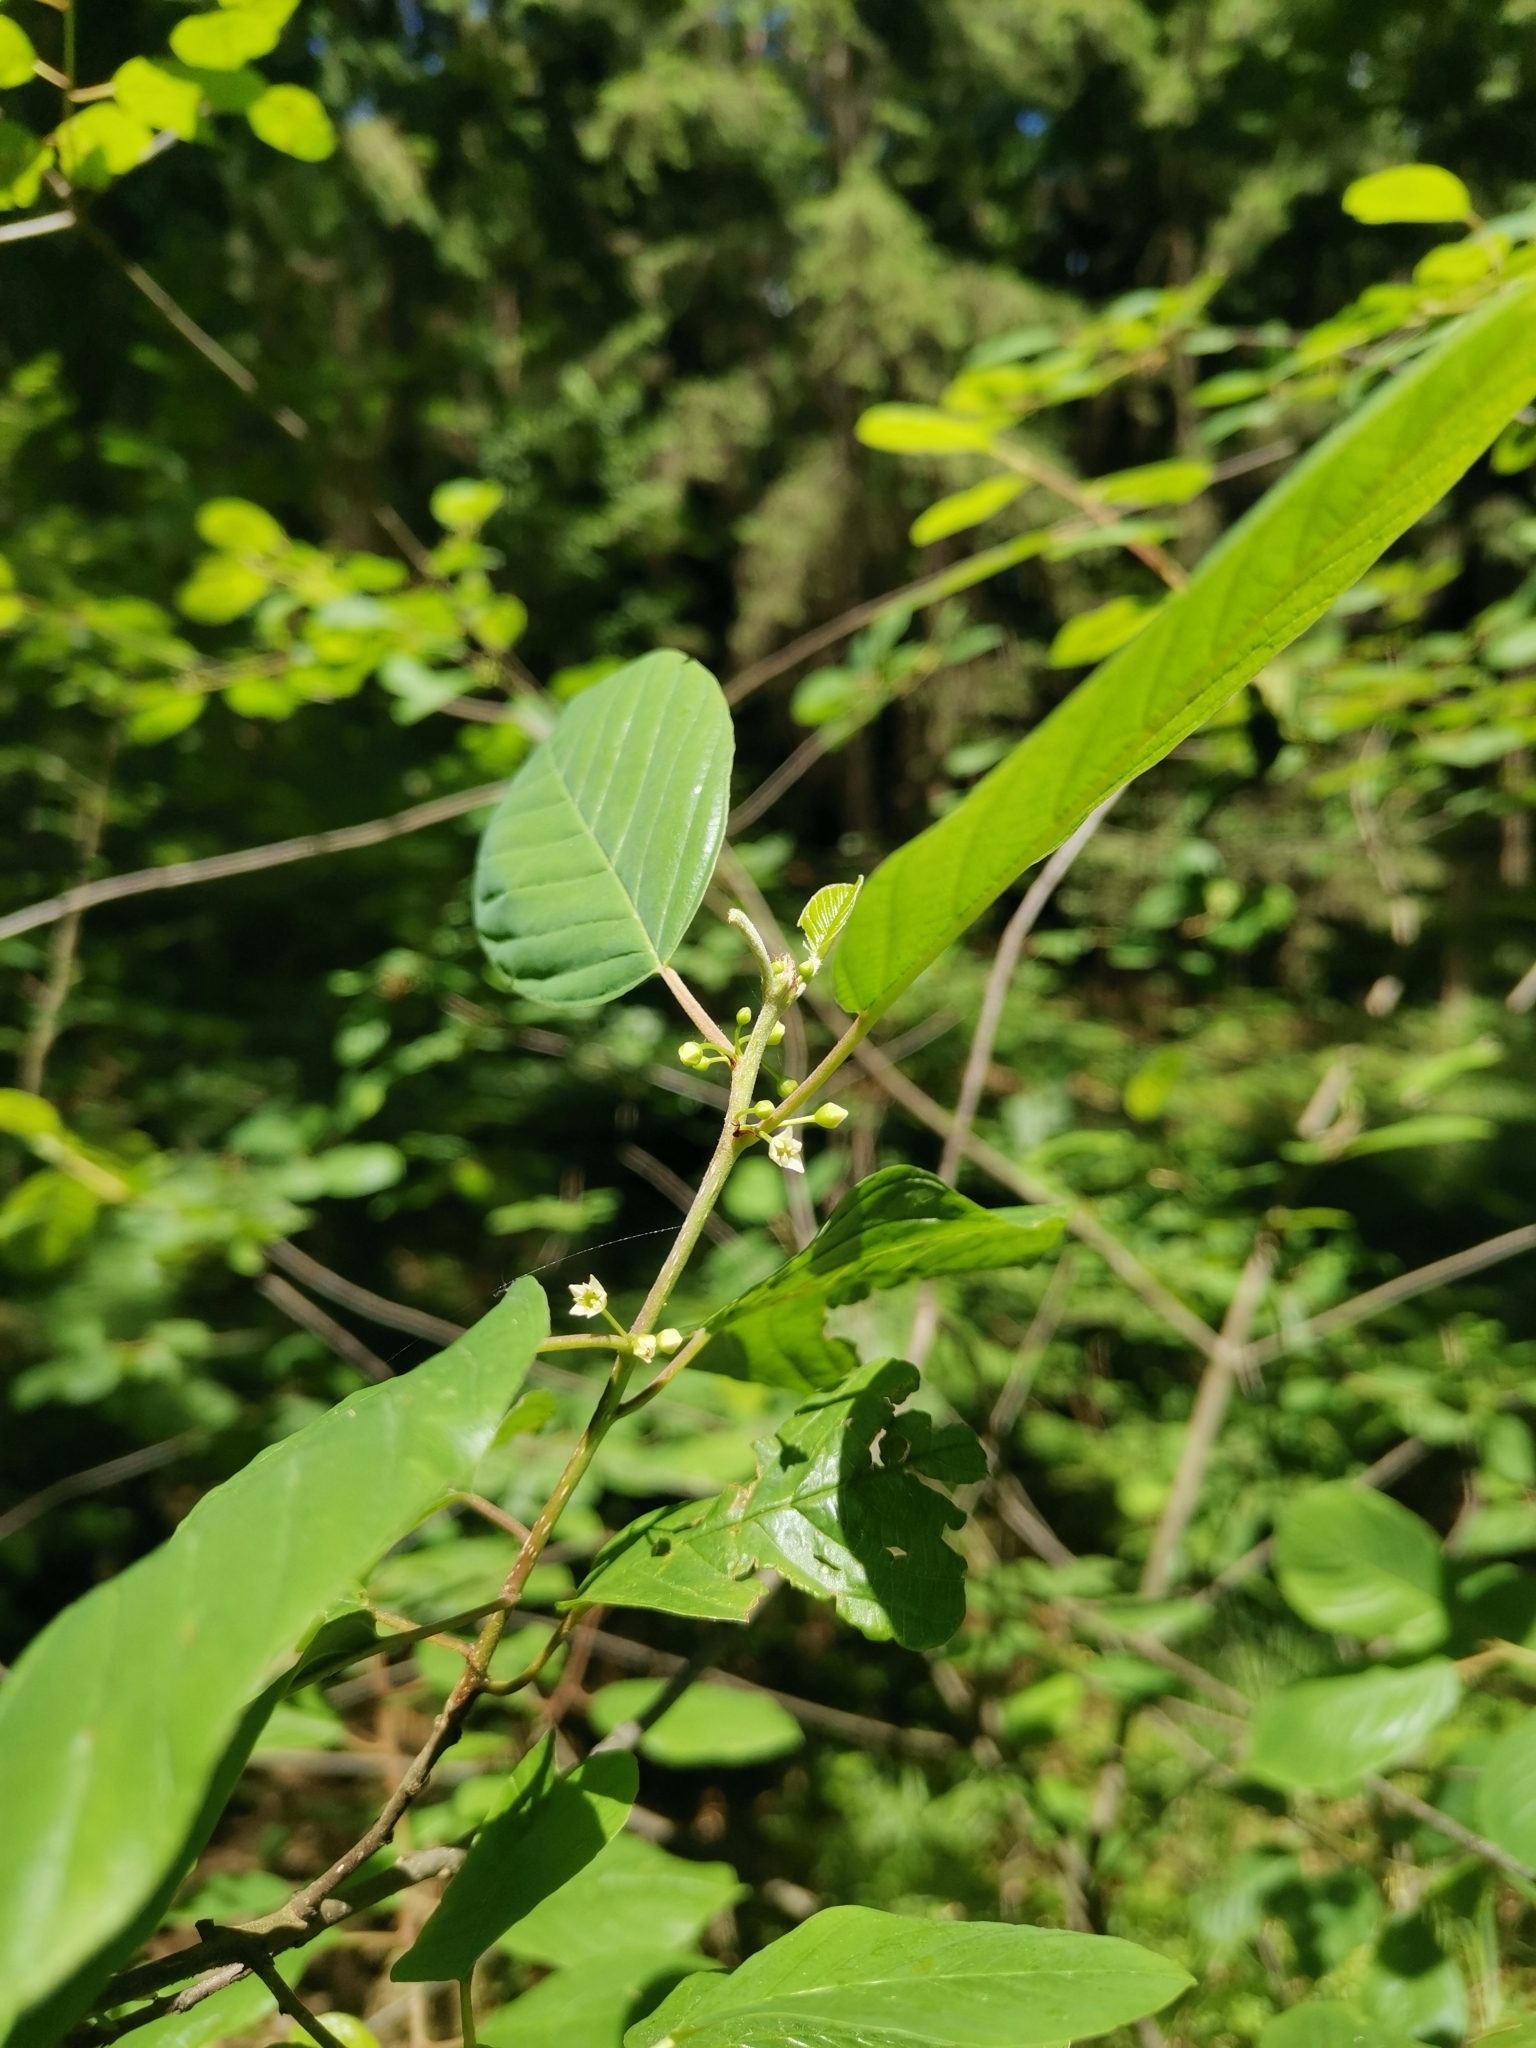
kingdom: Plantae
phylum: Tracheophyta
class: Magnoliopsida
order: Rosales
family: Rhamnaceae
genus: Frangula
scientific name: Frangula alnus
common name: Alder buckthorn
